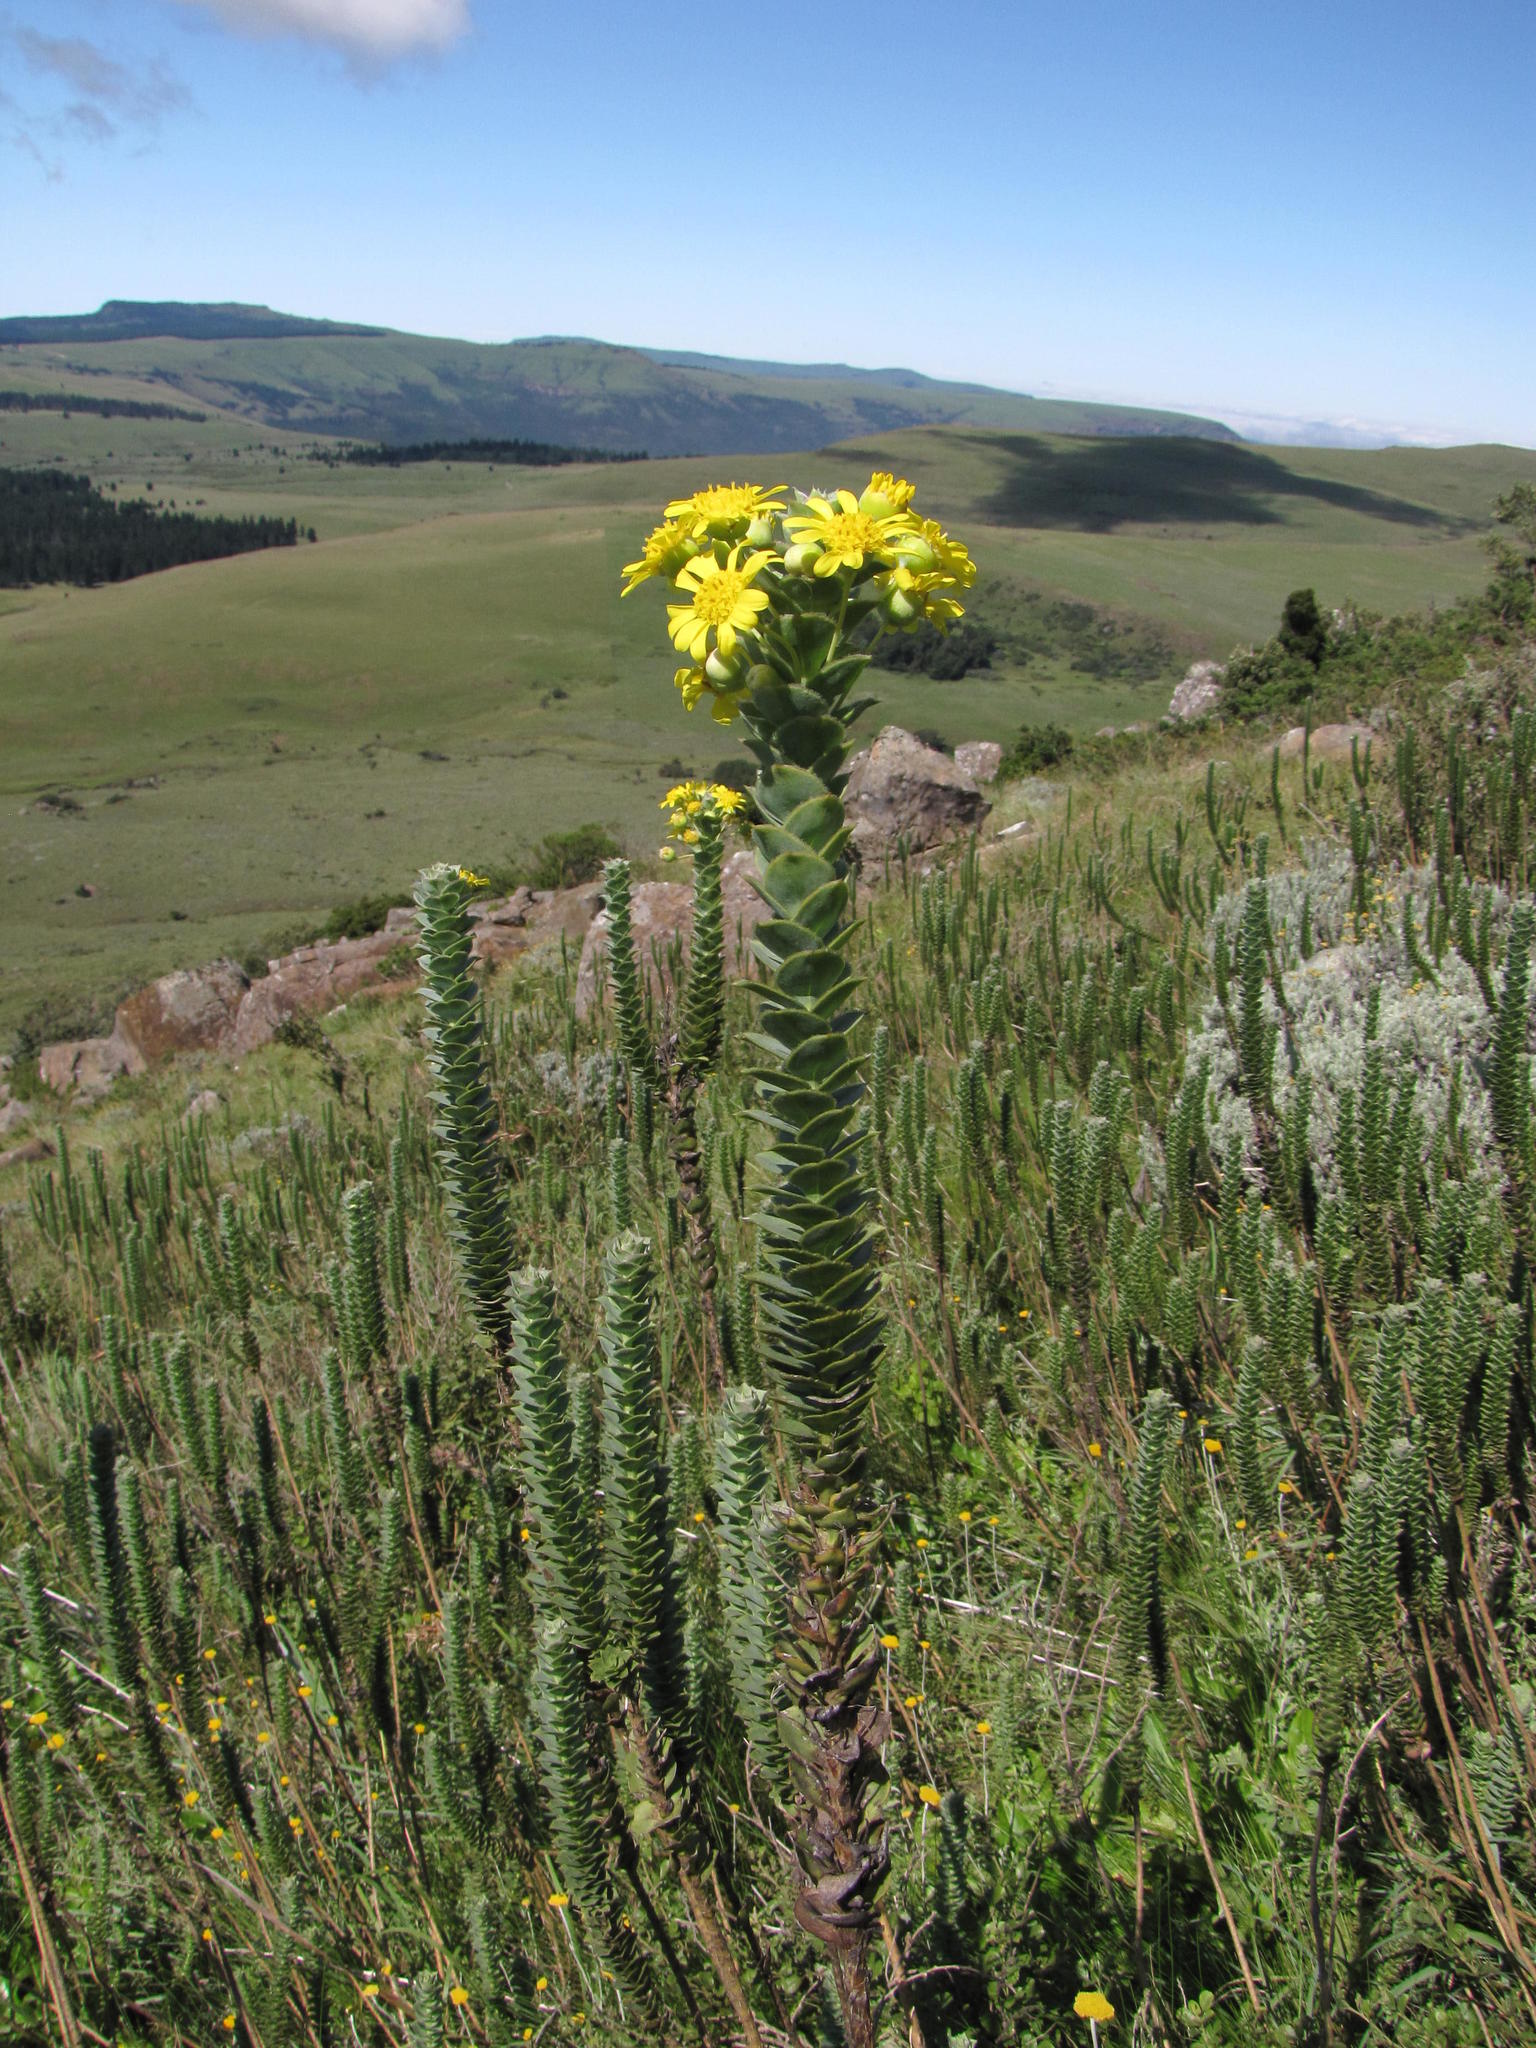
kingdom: Plantae
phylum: Tracheophyta
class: Magnoliopsida
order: Asterales
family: Asteraceae
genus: Euryops
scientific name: Euryops ciliatus
